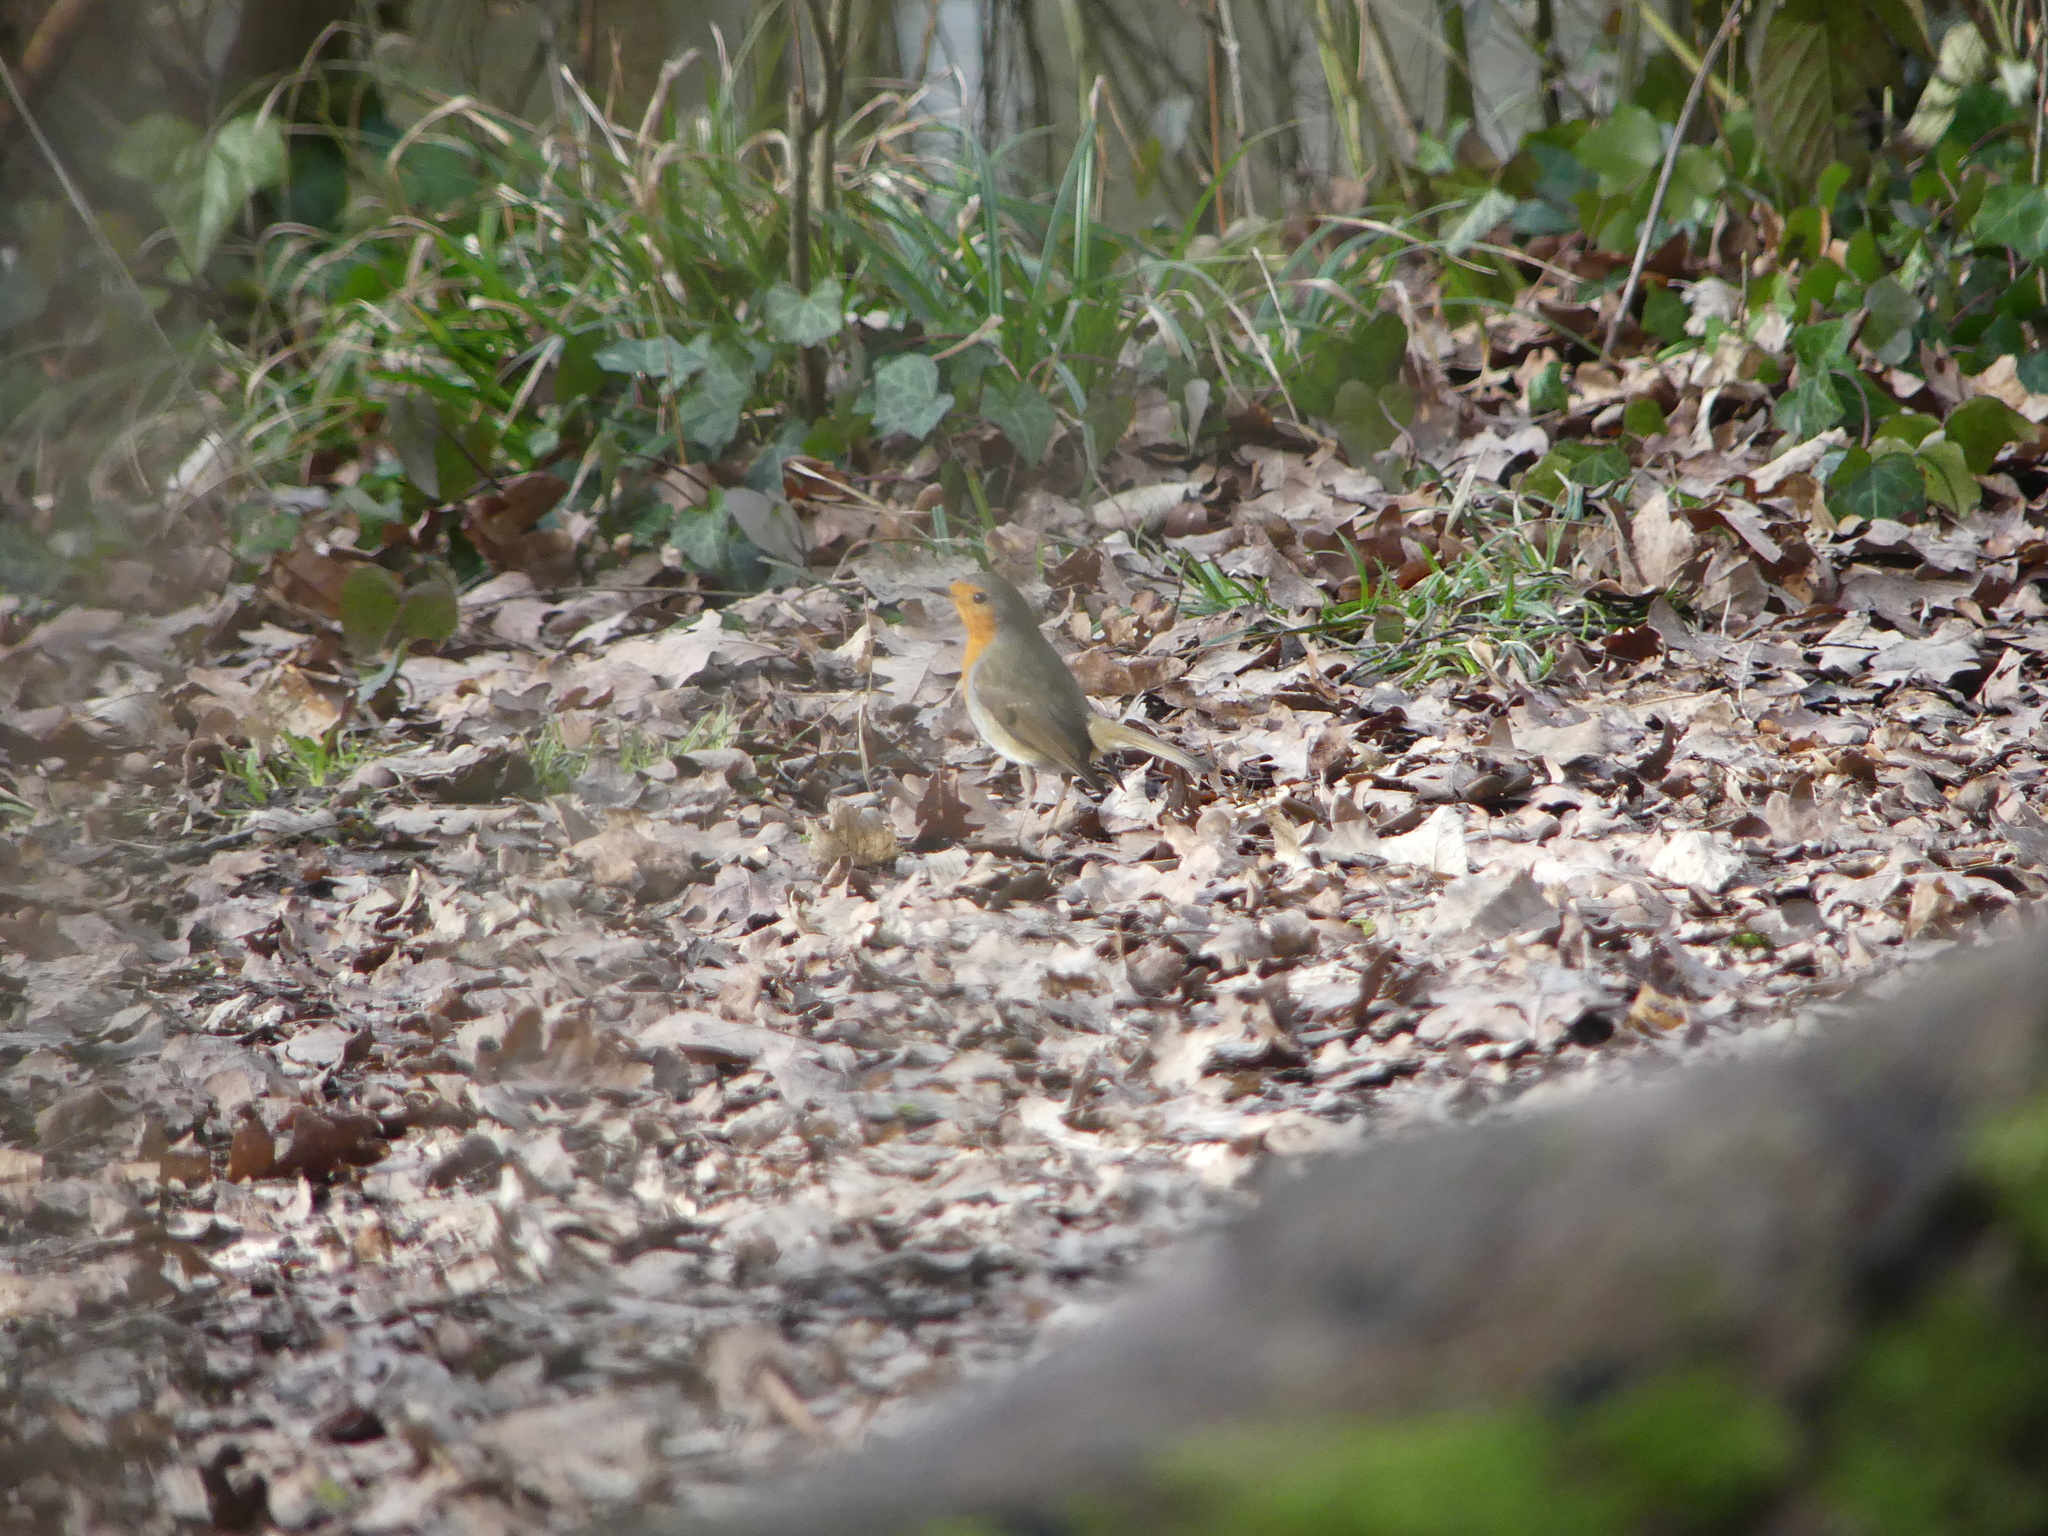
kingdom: Animalia
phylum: Chordata
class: Aves
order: Passeriformes
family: Muscicapidae
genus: Erithacus
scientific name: Erithacus rubecula
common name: European robin
